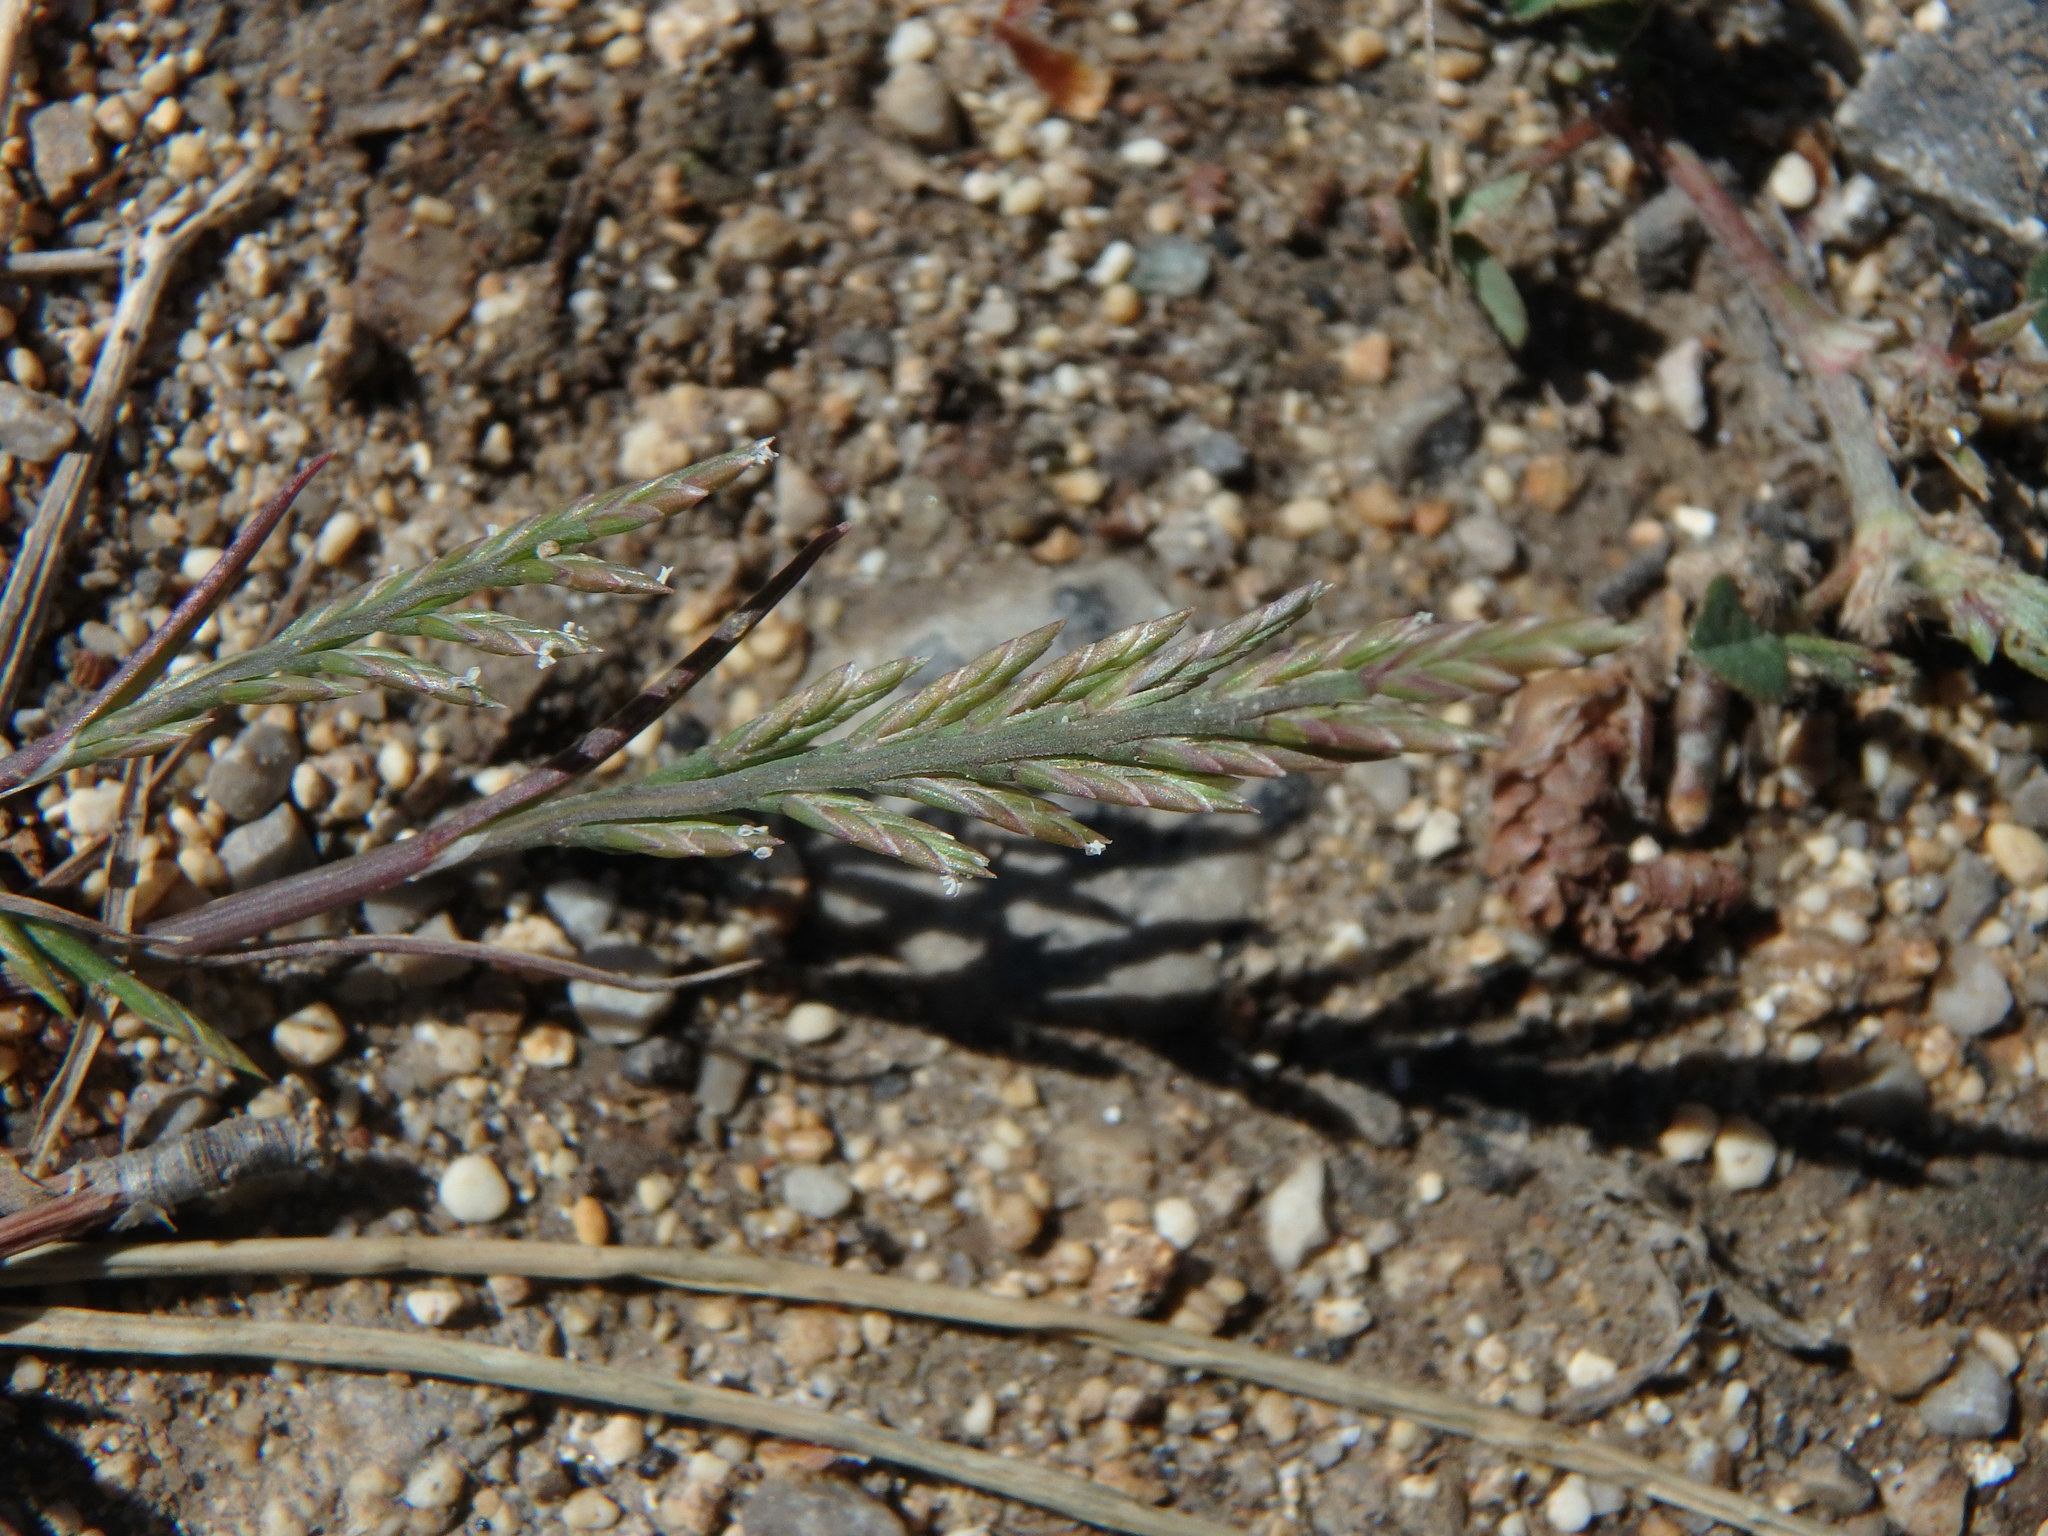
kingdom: Plantae
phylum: Tracheophyta
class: Liliopsida
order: Poales
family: Poaceae
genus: Catapodium
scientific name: Catapodium marinum
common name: Sea fern-grass
